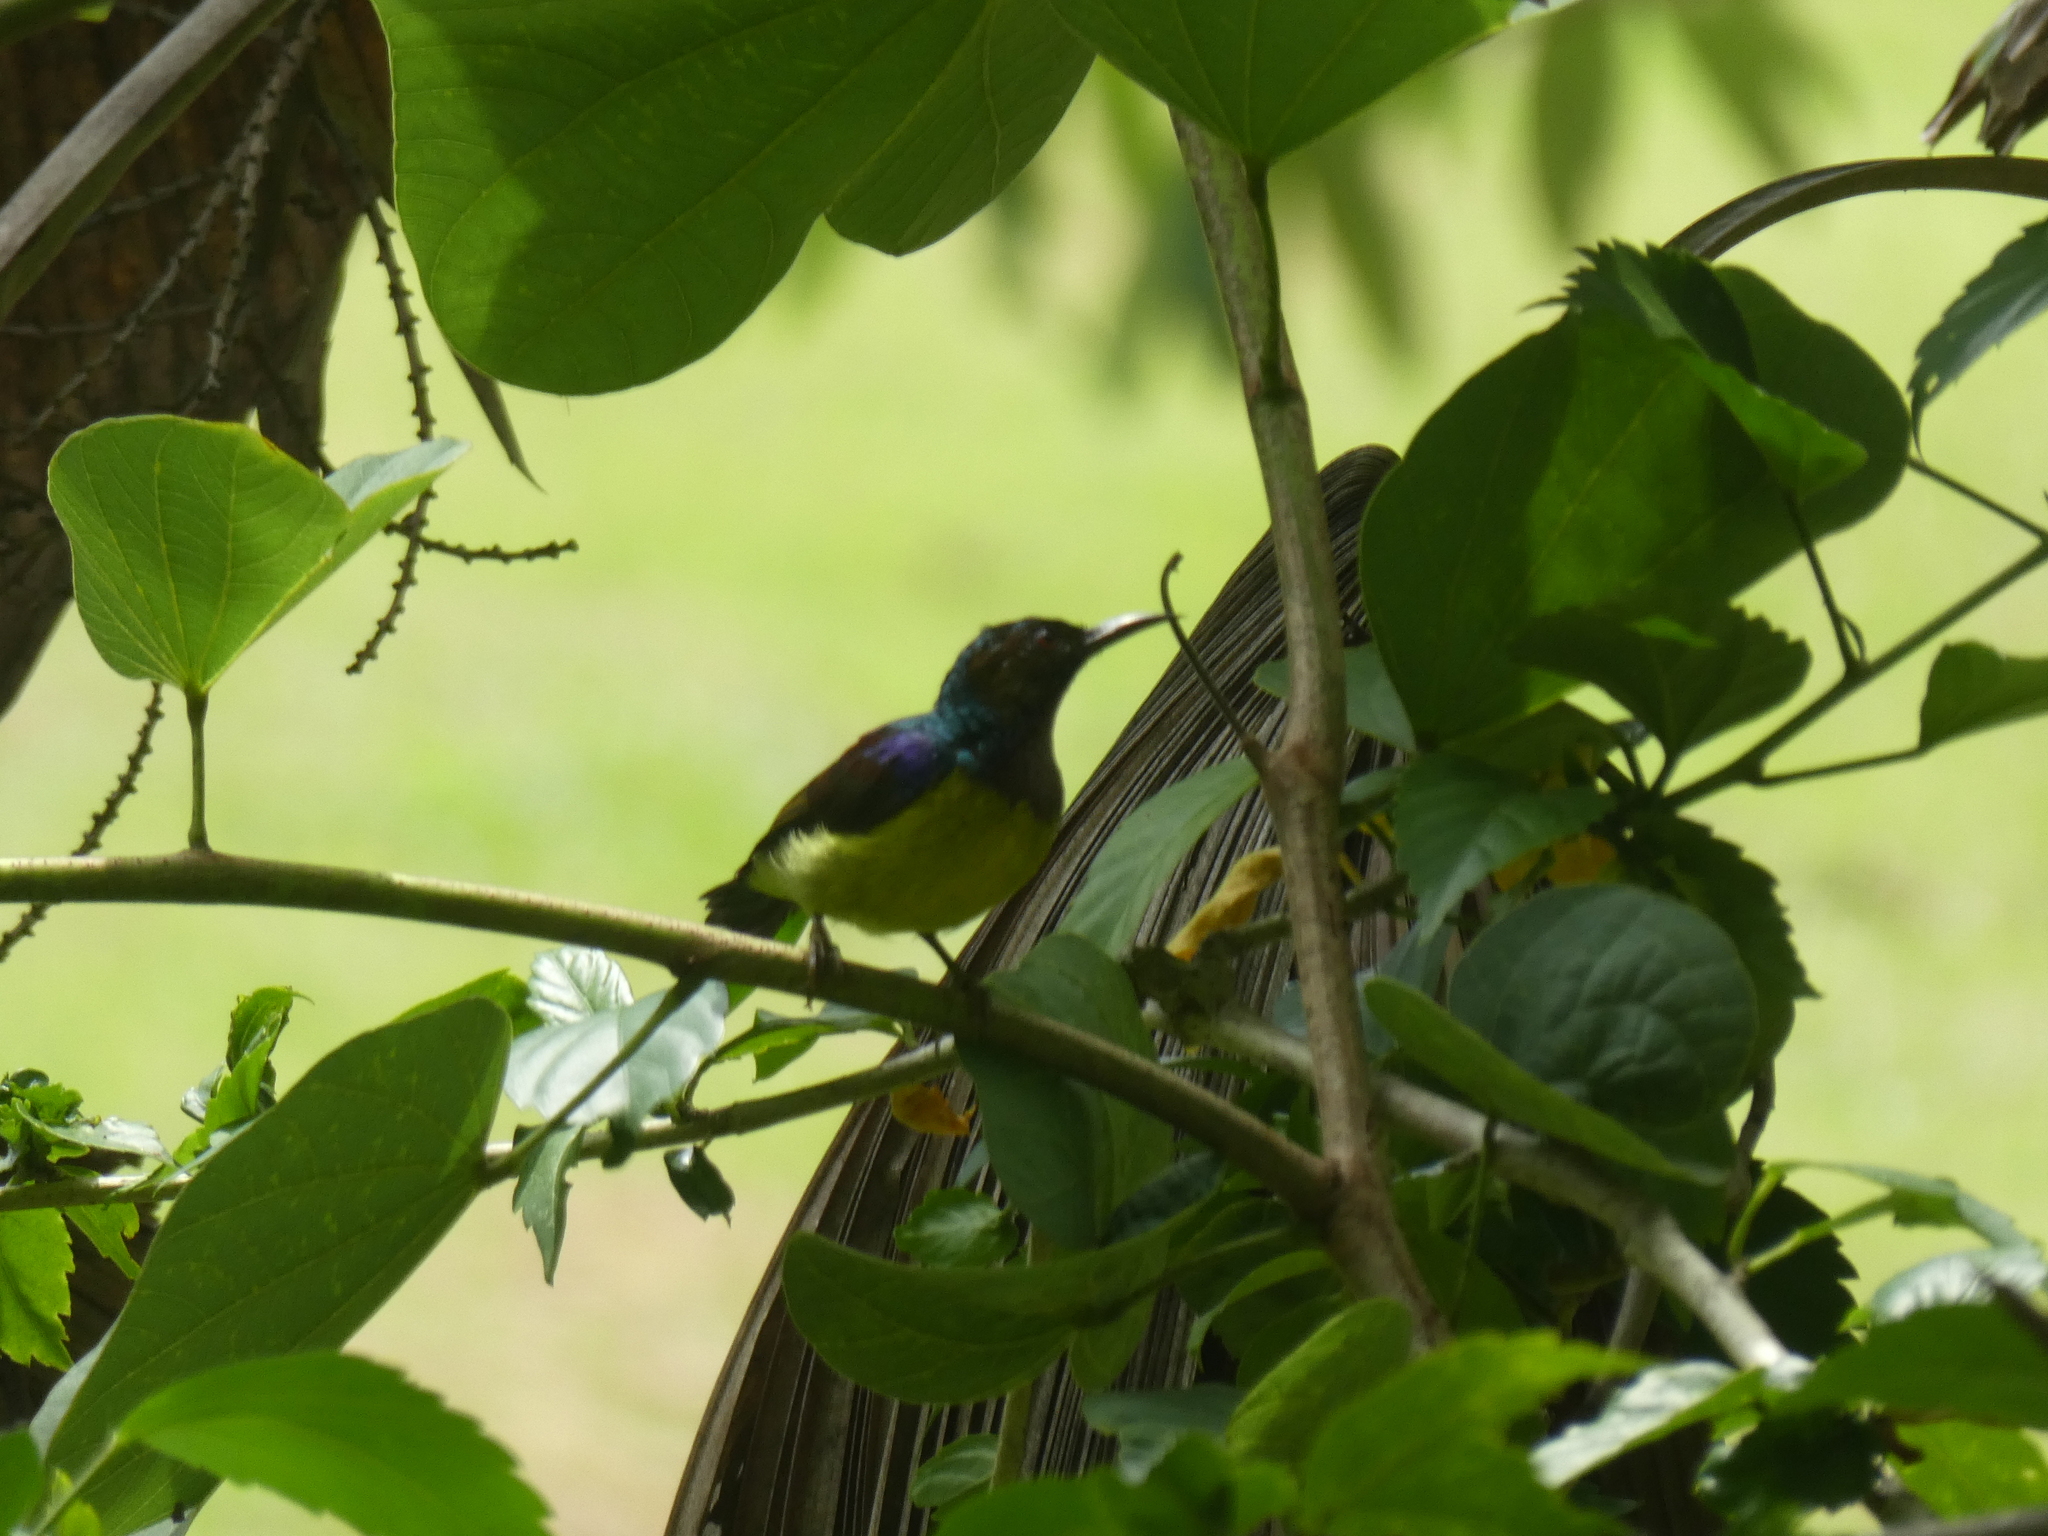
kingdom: Animalia
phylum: Chordata
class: Aves
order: Passeriformes
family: Nectariniidae
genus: Anthreptes
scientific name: Anthreptes malacensis
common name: Brown-throated sunbird
